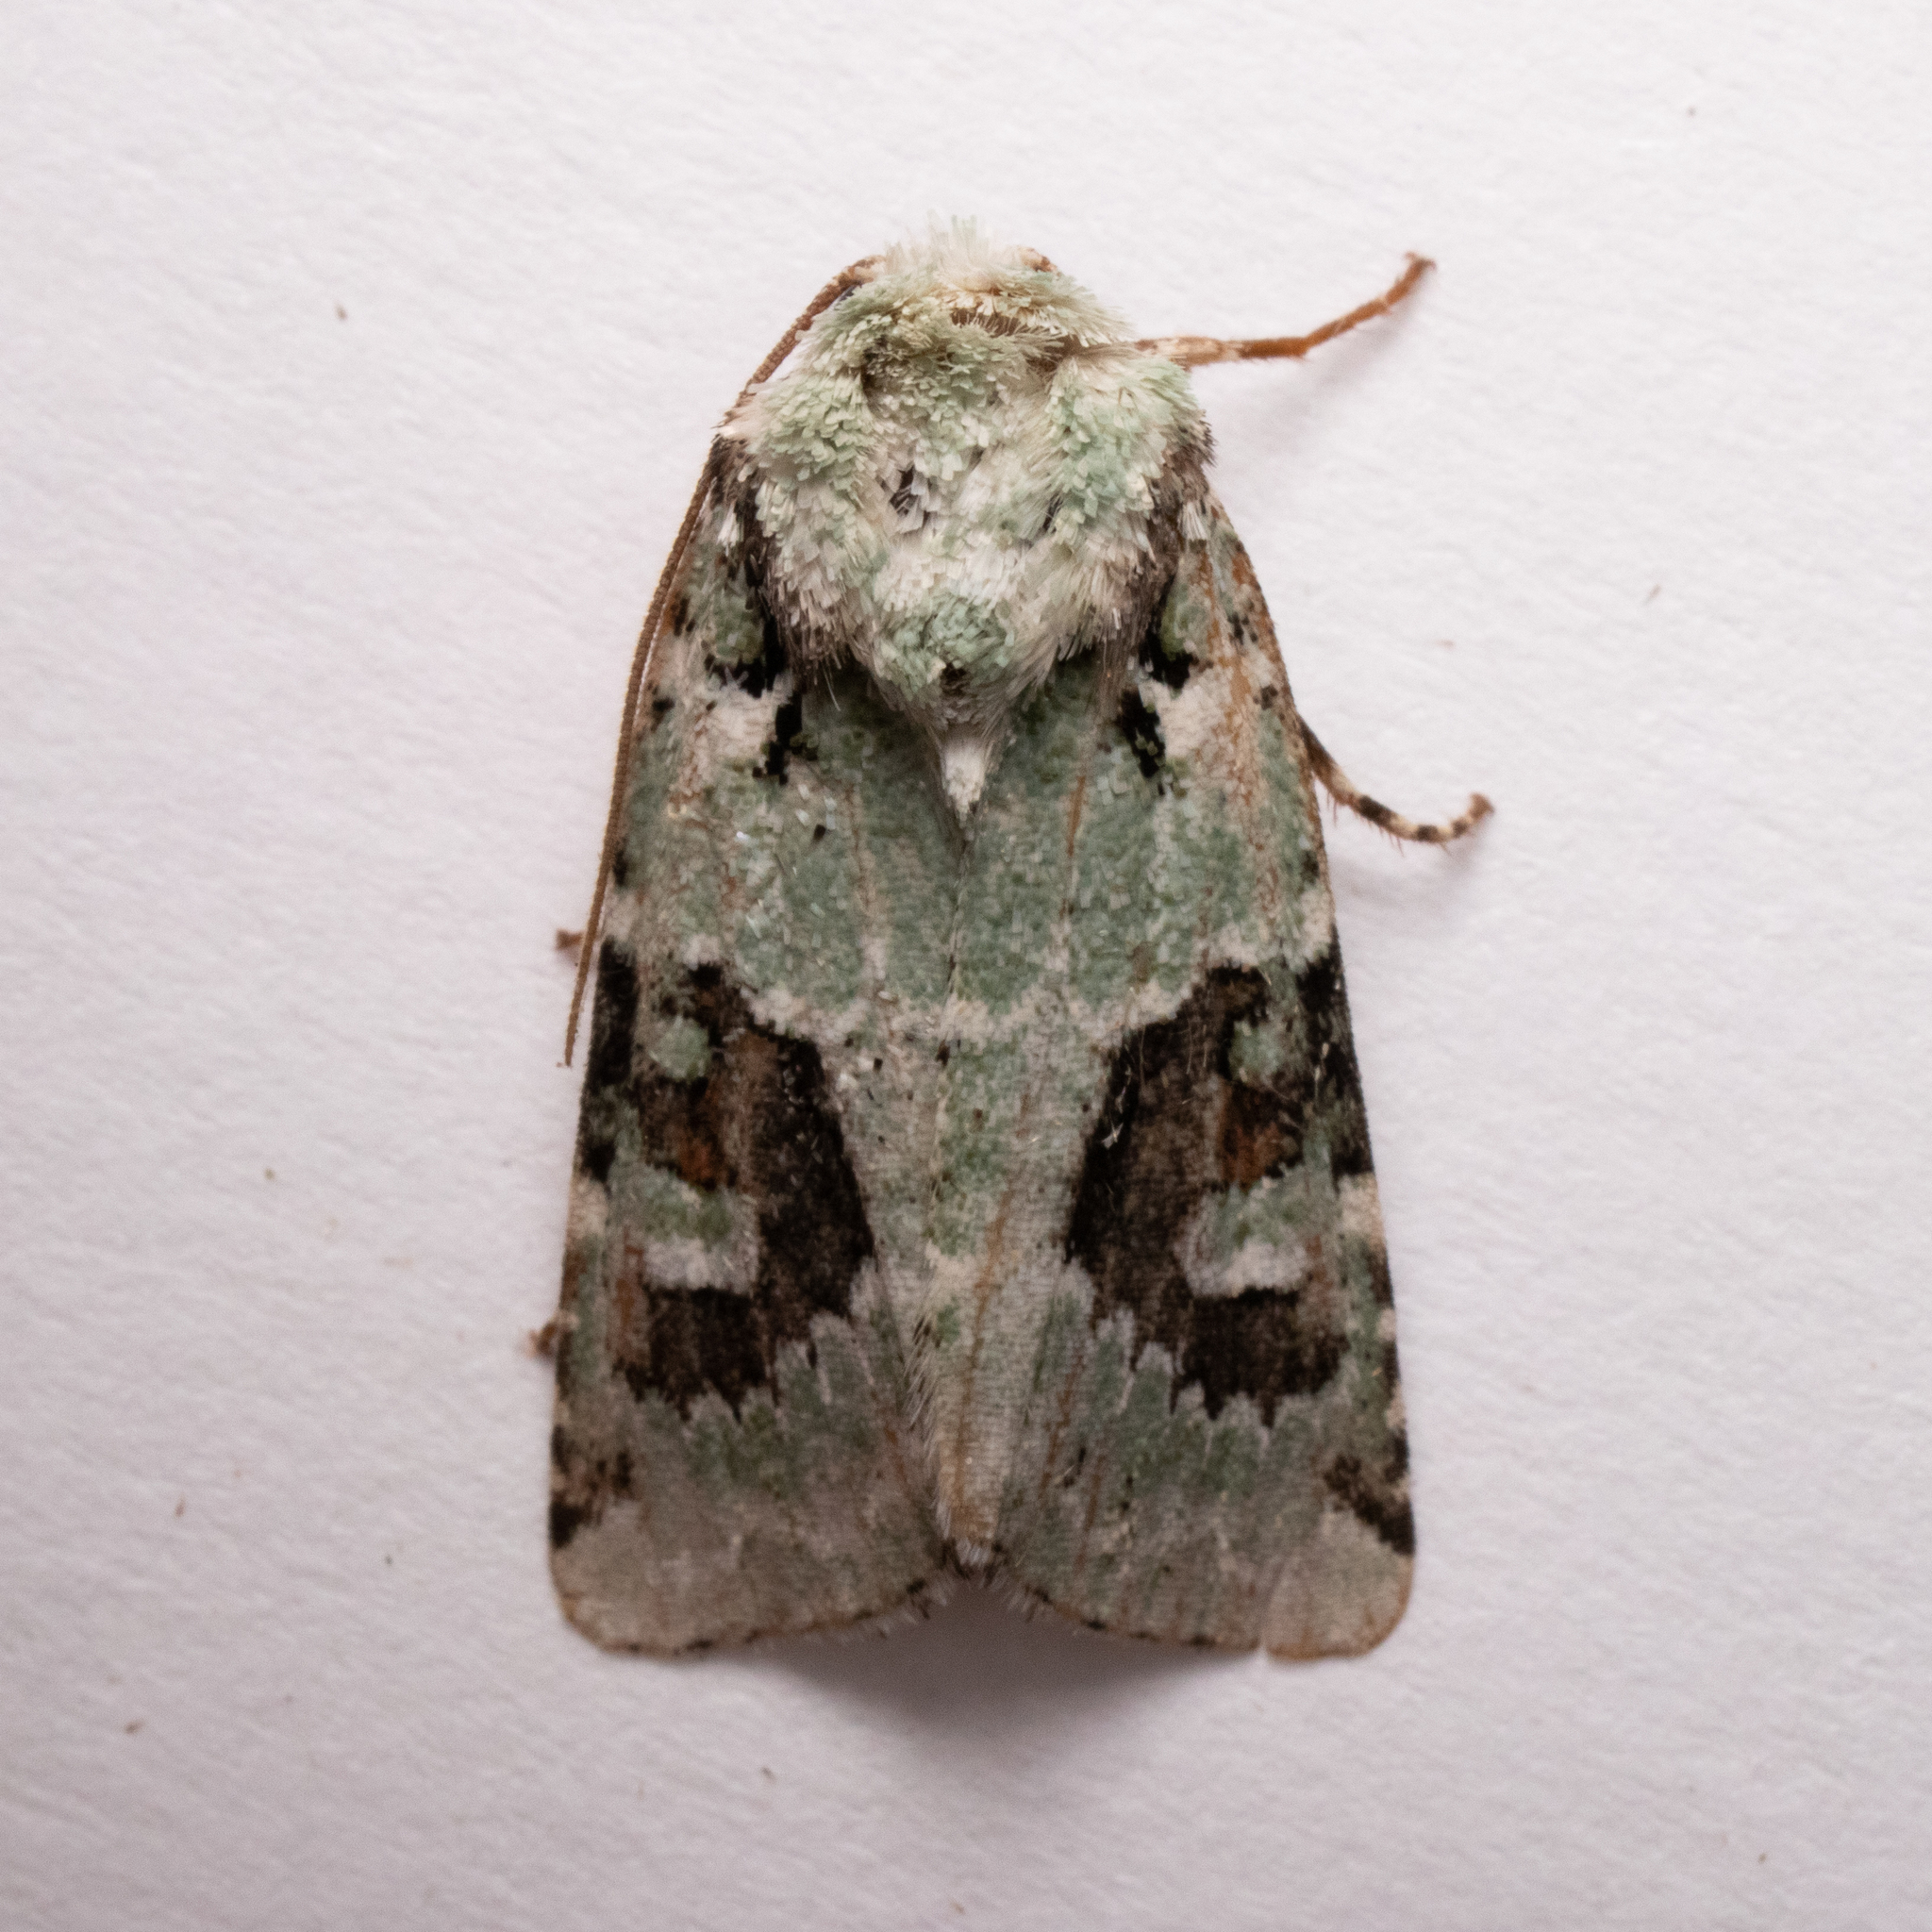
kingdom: Animalia
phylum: Arthropoda
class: Insecta
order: Lepidoptera
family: Noctuidae
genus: Lacinipolia
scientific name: Lacinipolia laudabilis
